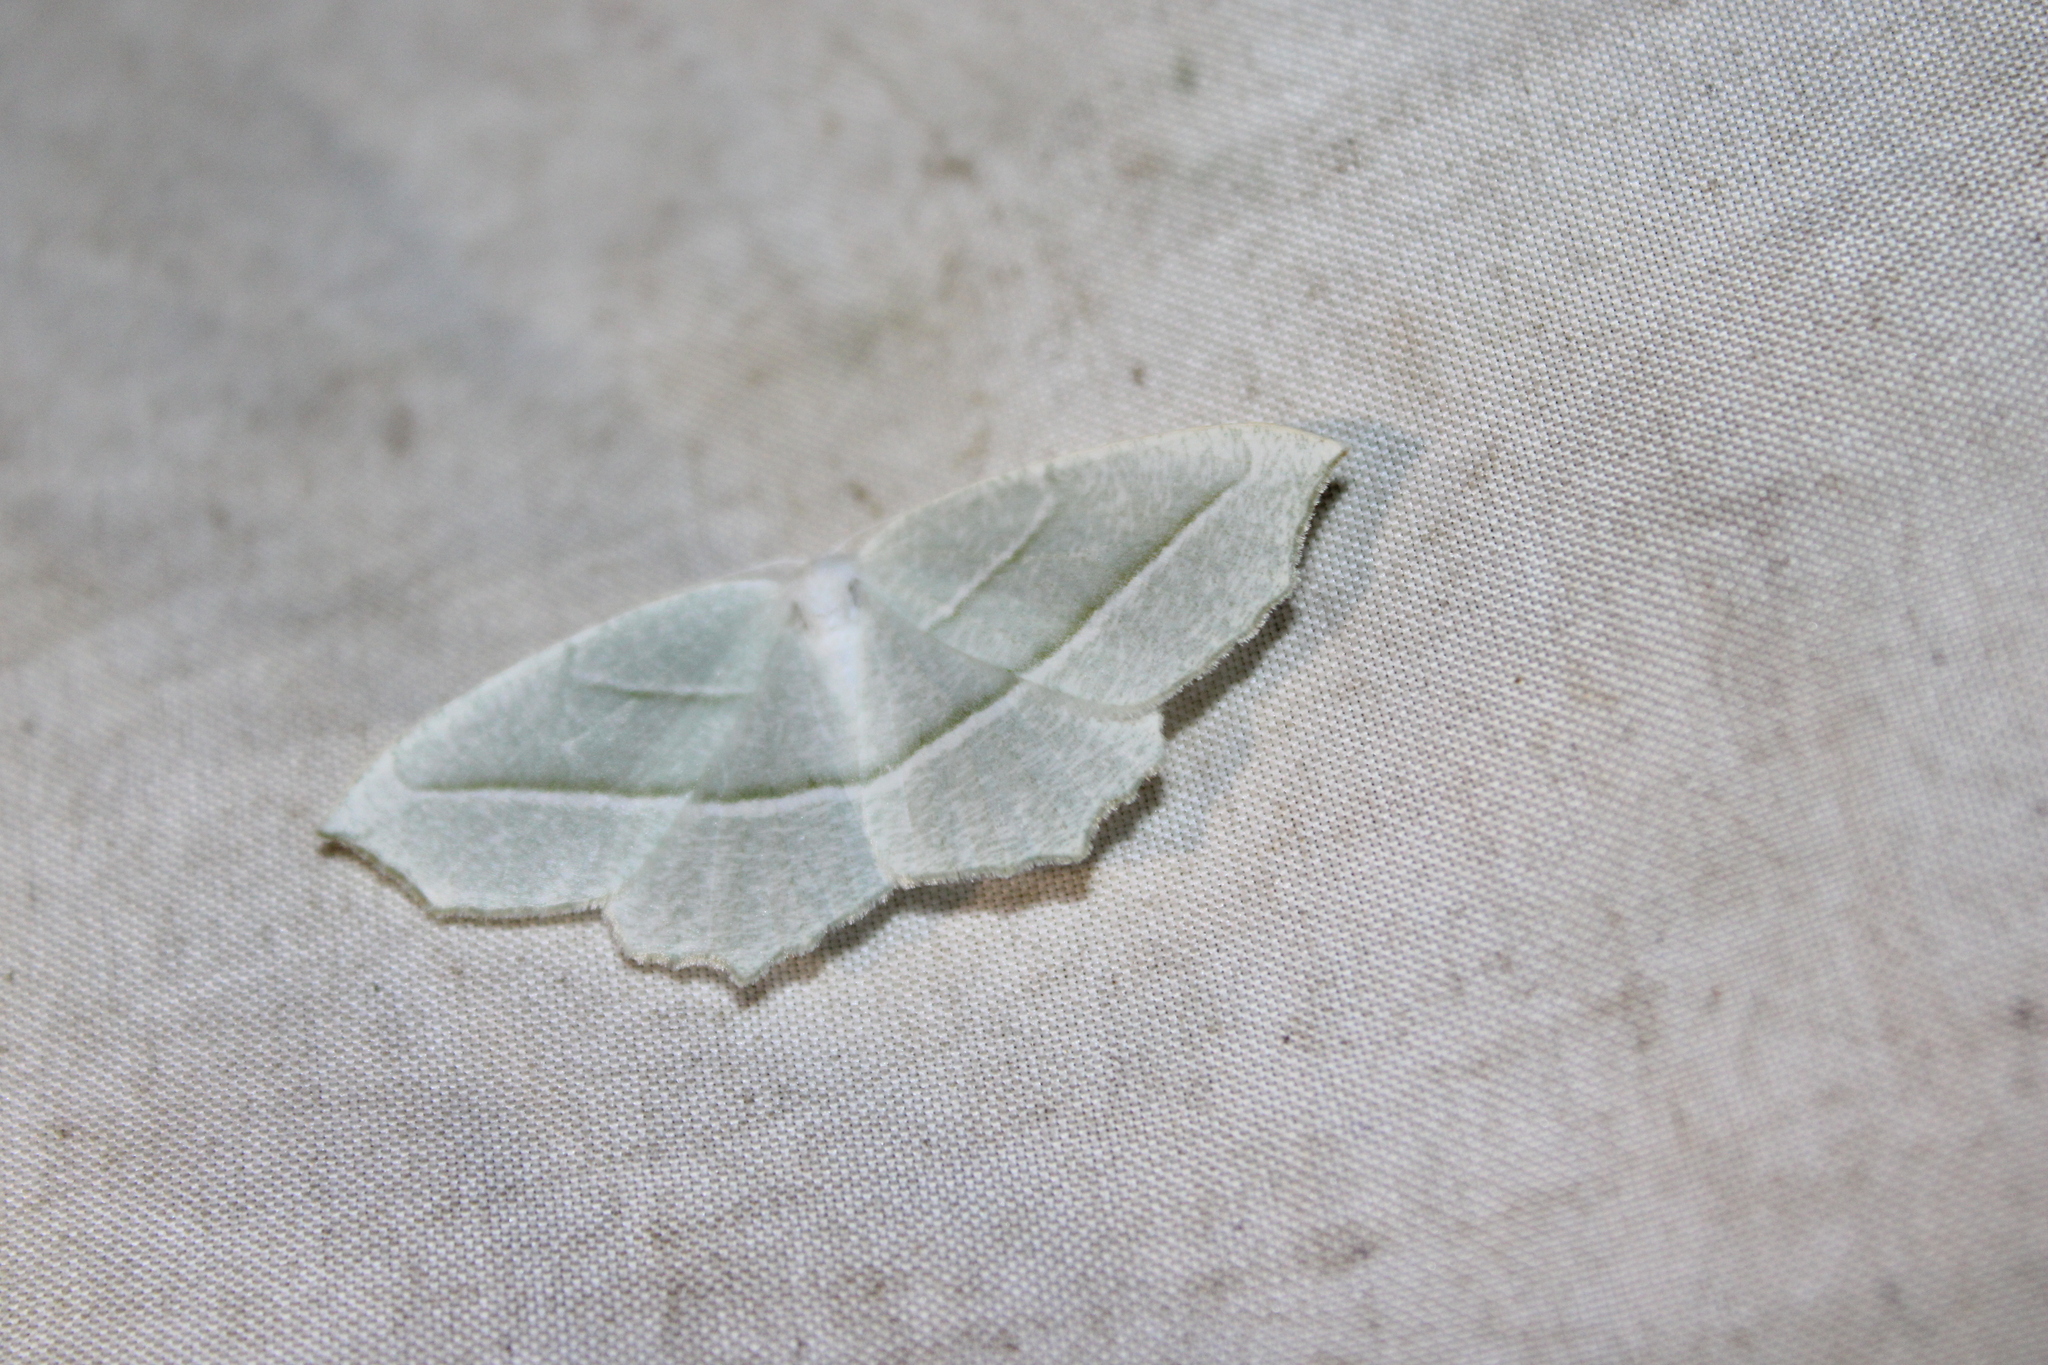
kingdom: Animalia
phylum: Arthropoda
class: Insecta
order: Lepidoptera
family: Geometridae
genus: Campaea
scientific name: Campaea perlata
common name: Fringed looper
